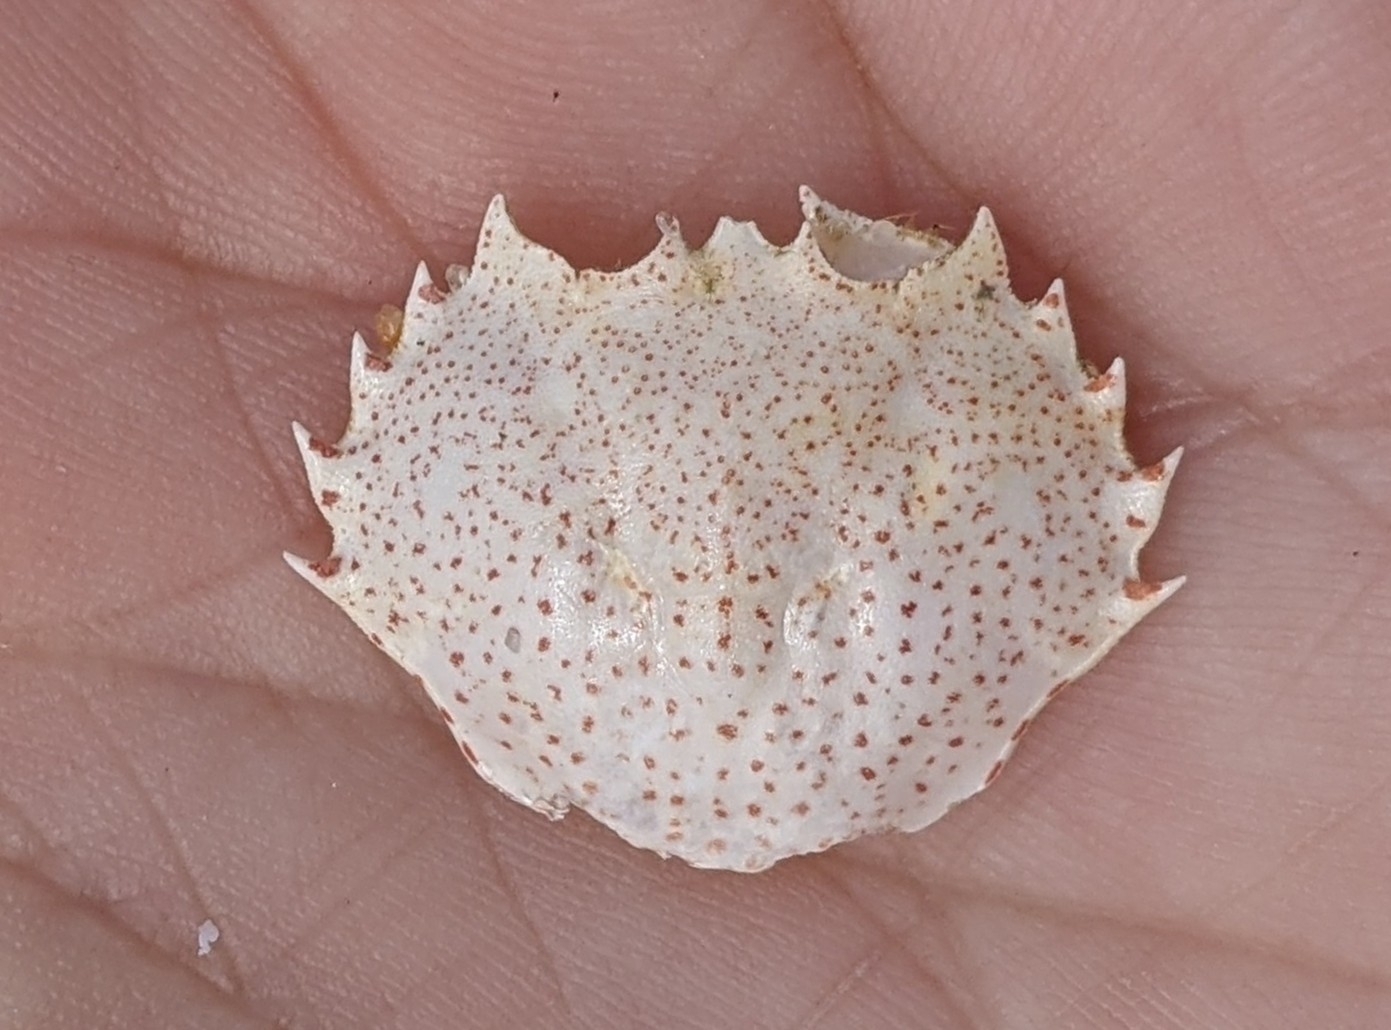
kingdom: Animalia
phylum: Arthropoda
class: Malacostraca
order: Decapoda
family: Ovalipidae
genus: Ovalipes
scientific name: Ovalipes ocellatus
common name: Lady crab
